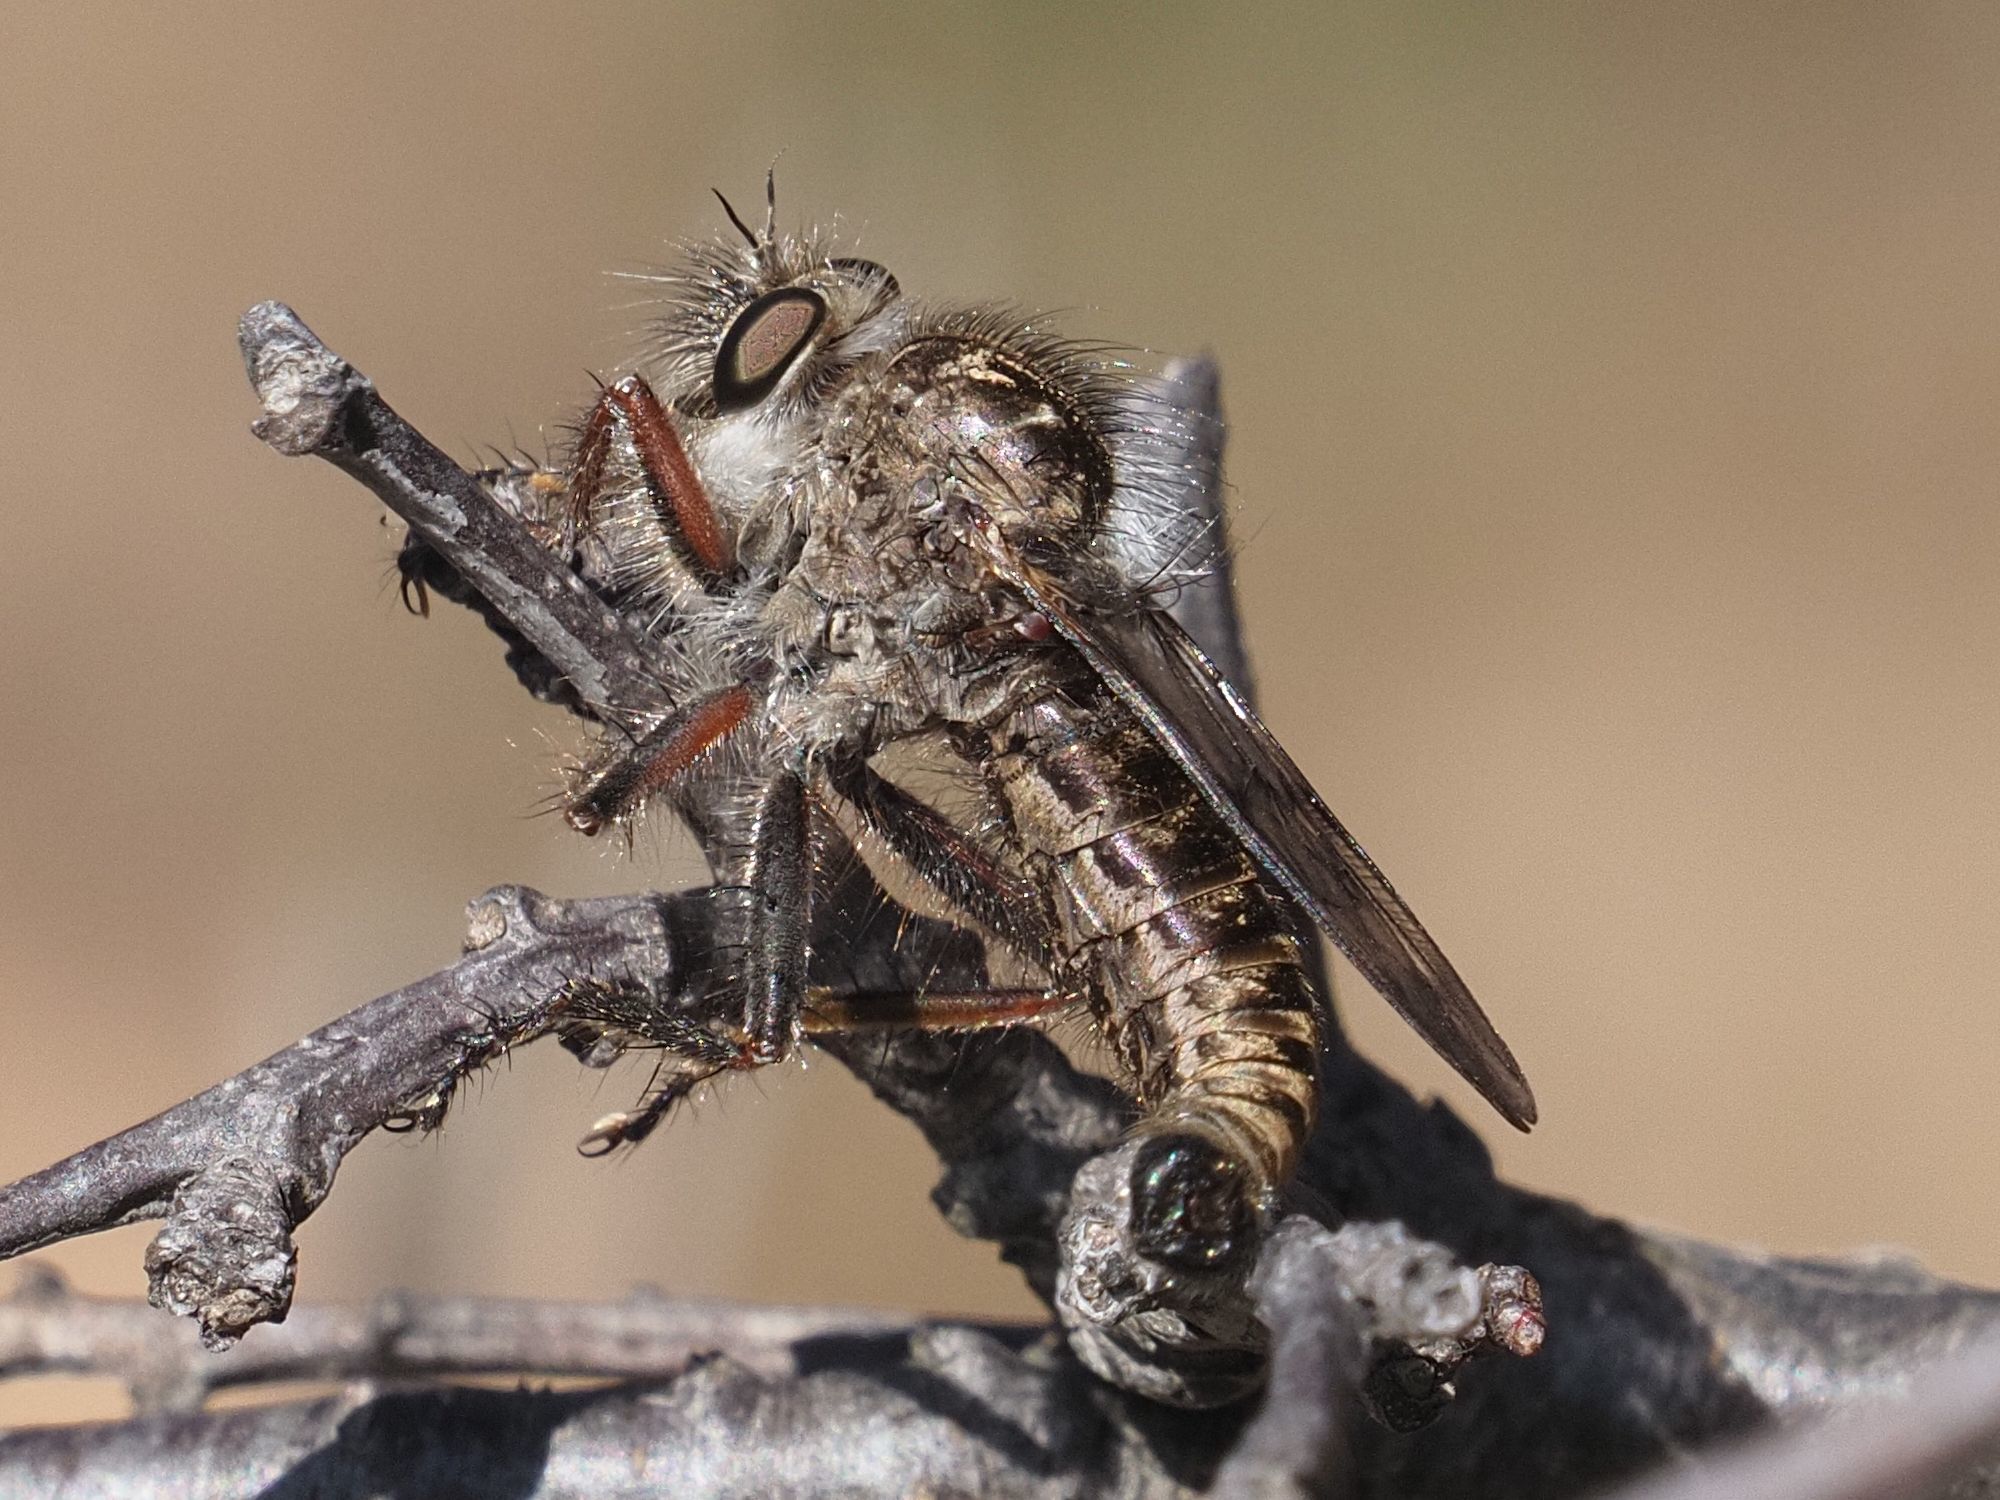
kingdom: Animalia
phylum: Arthropoda
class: Insecta
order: Diptera
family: Asilidae
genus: Erax
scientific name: Erax barbatus
